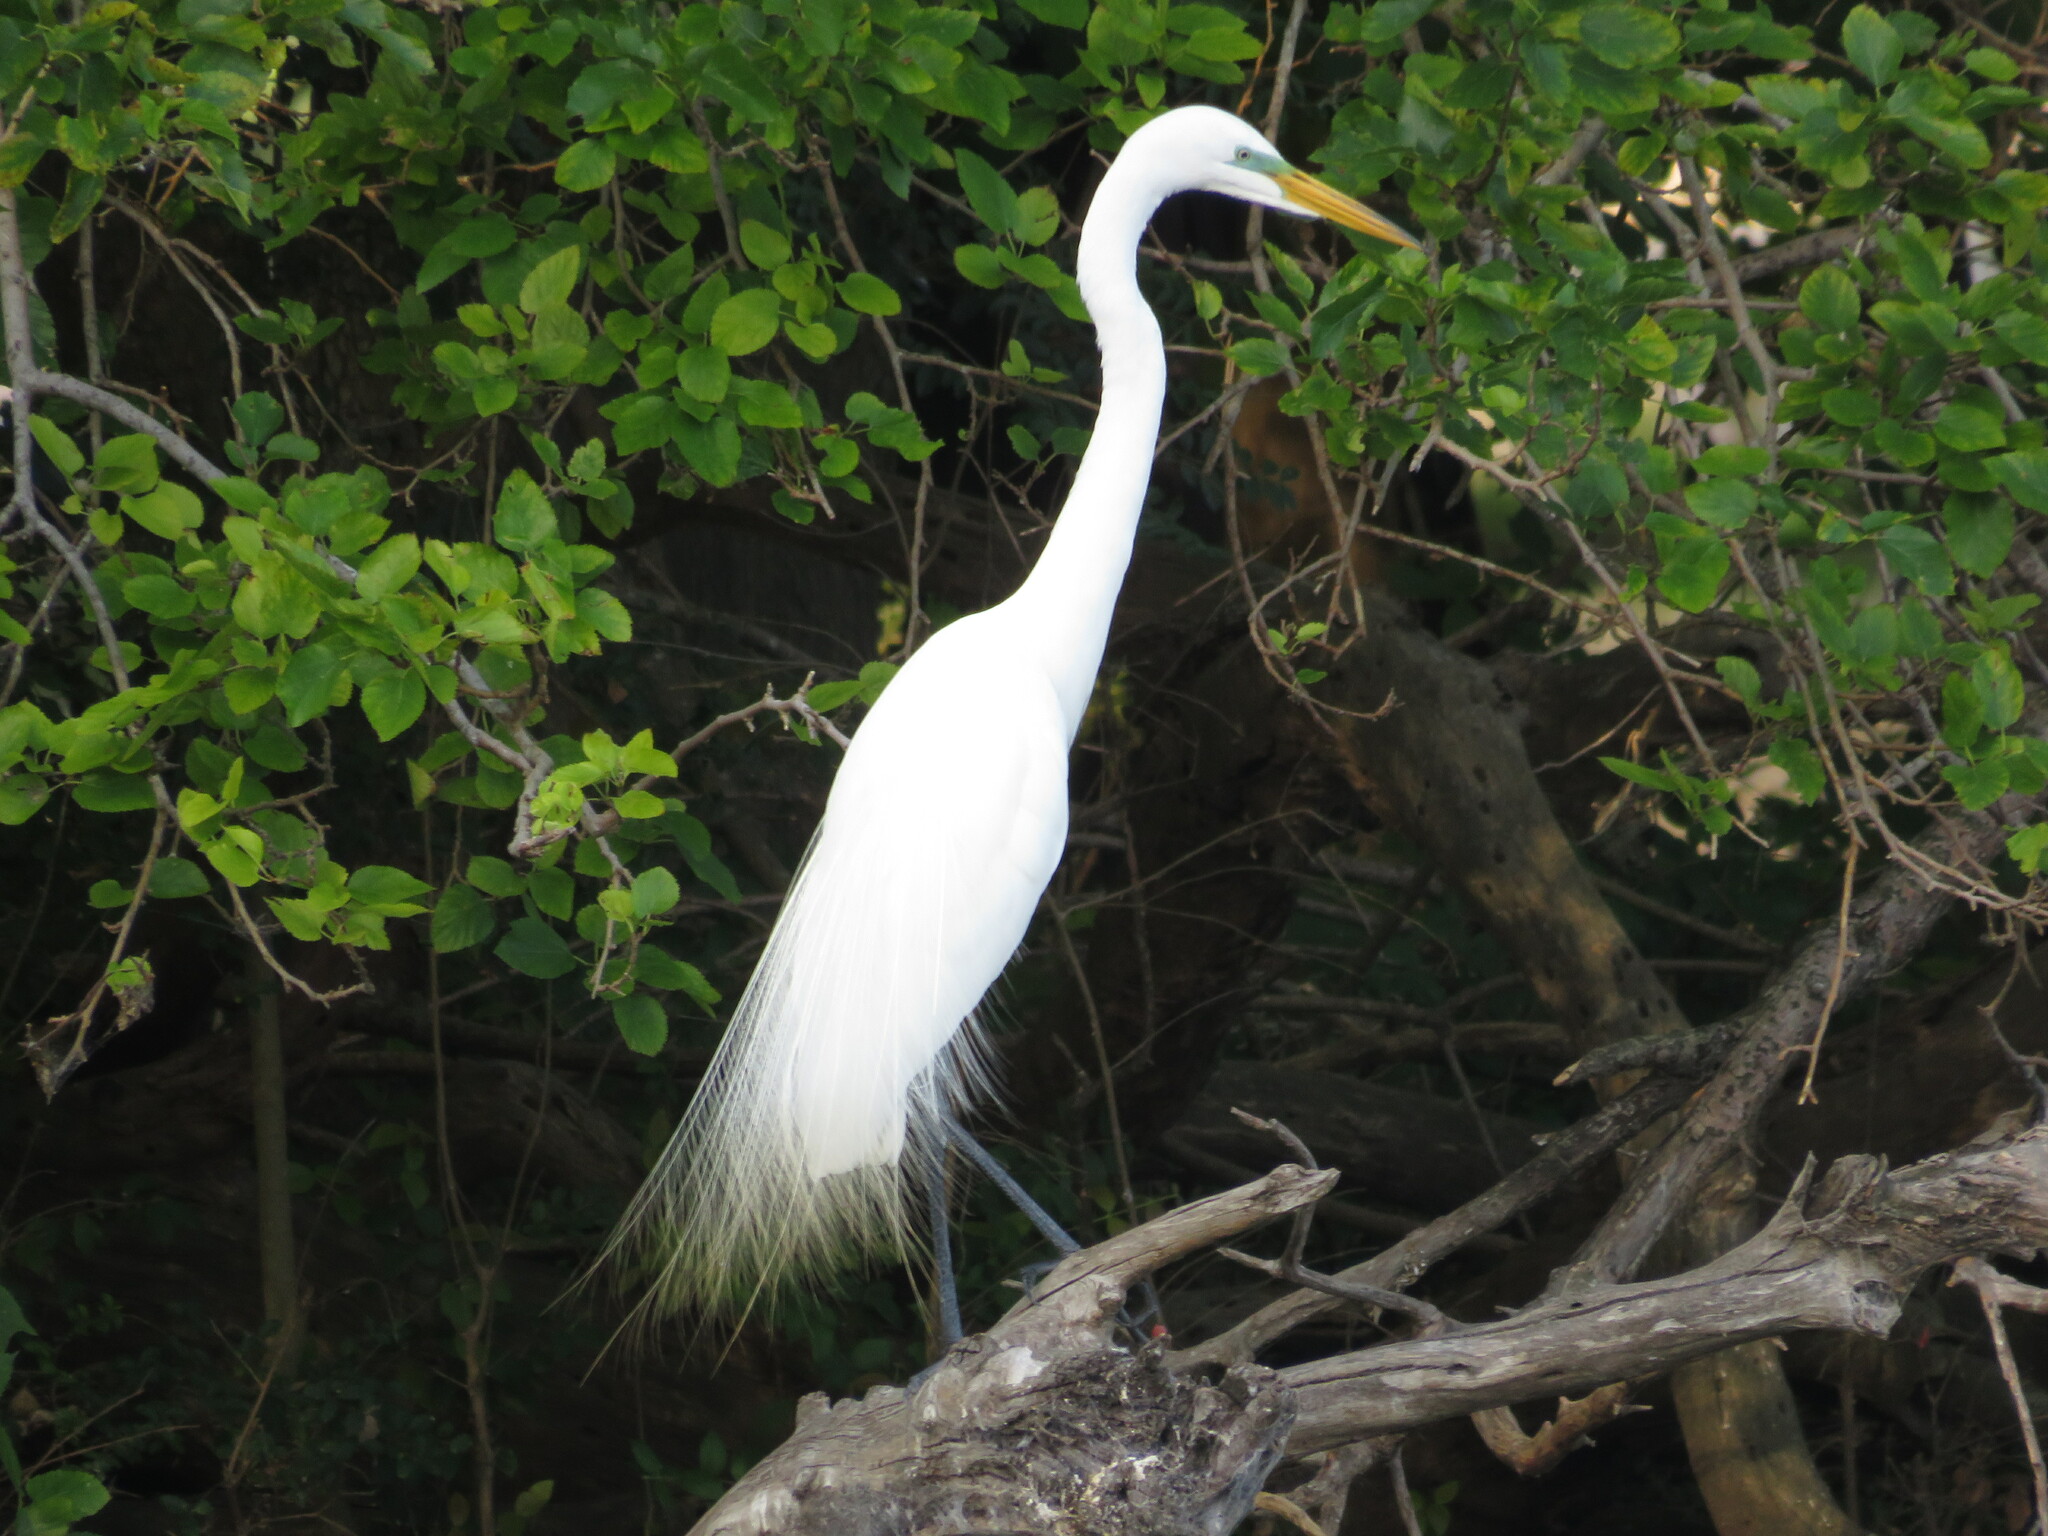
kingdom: Animalia
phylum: Chordata
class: Aves
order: Pelecaniformes
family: Ardeidae
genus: Ardea
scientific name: Ardea alba
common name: Great egret
